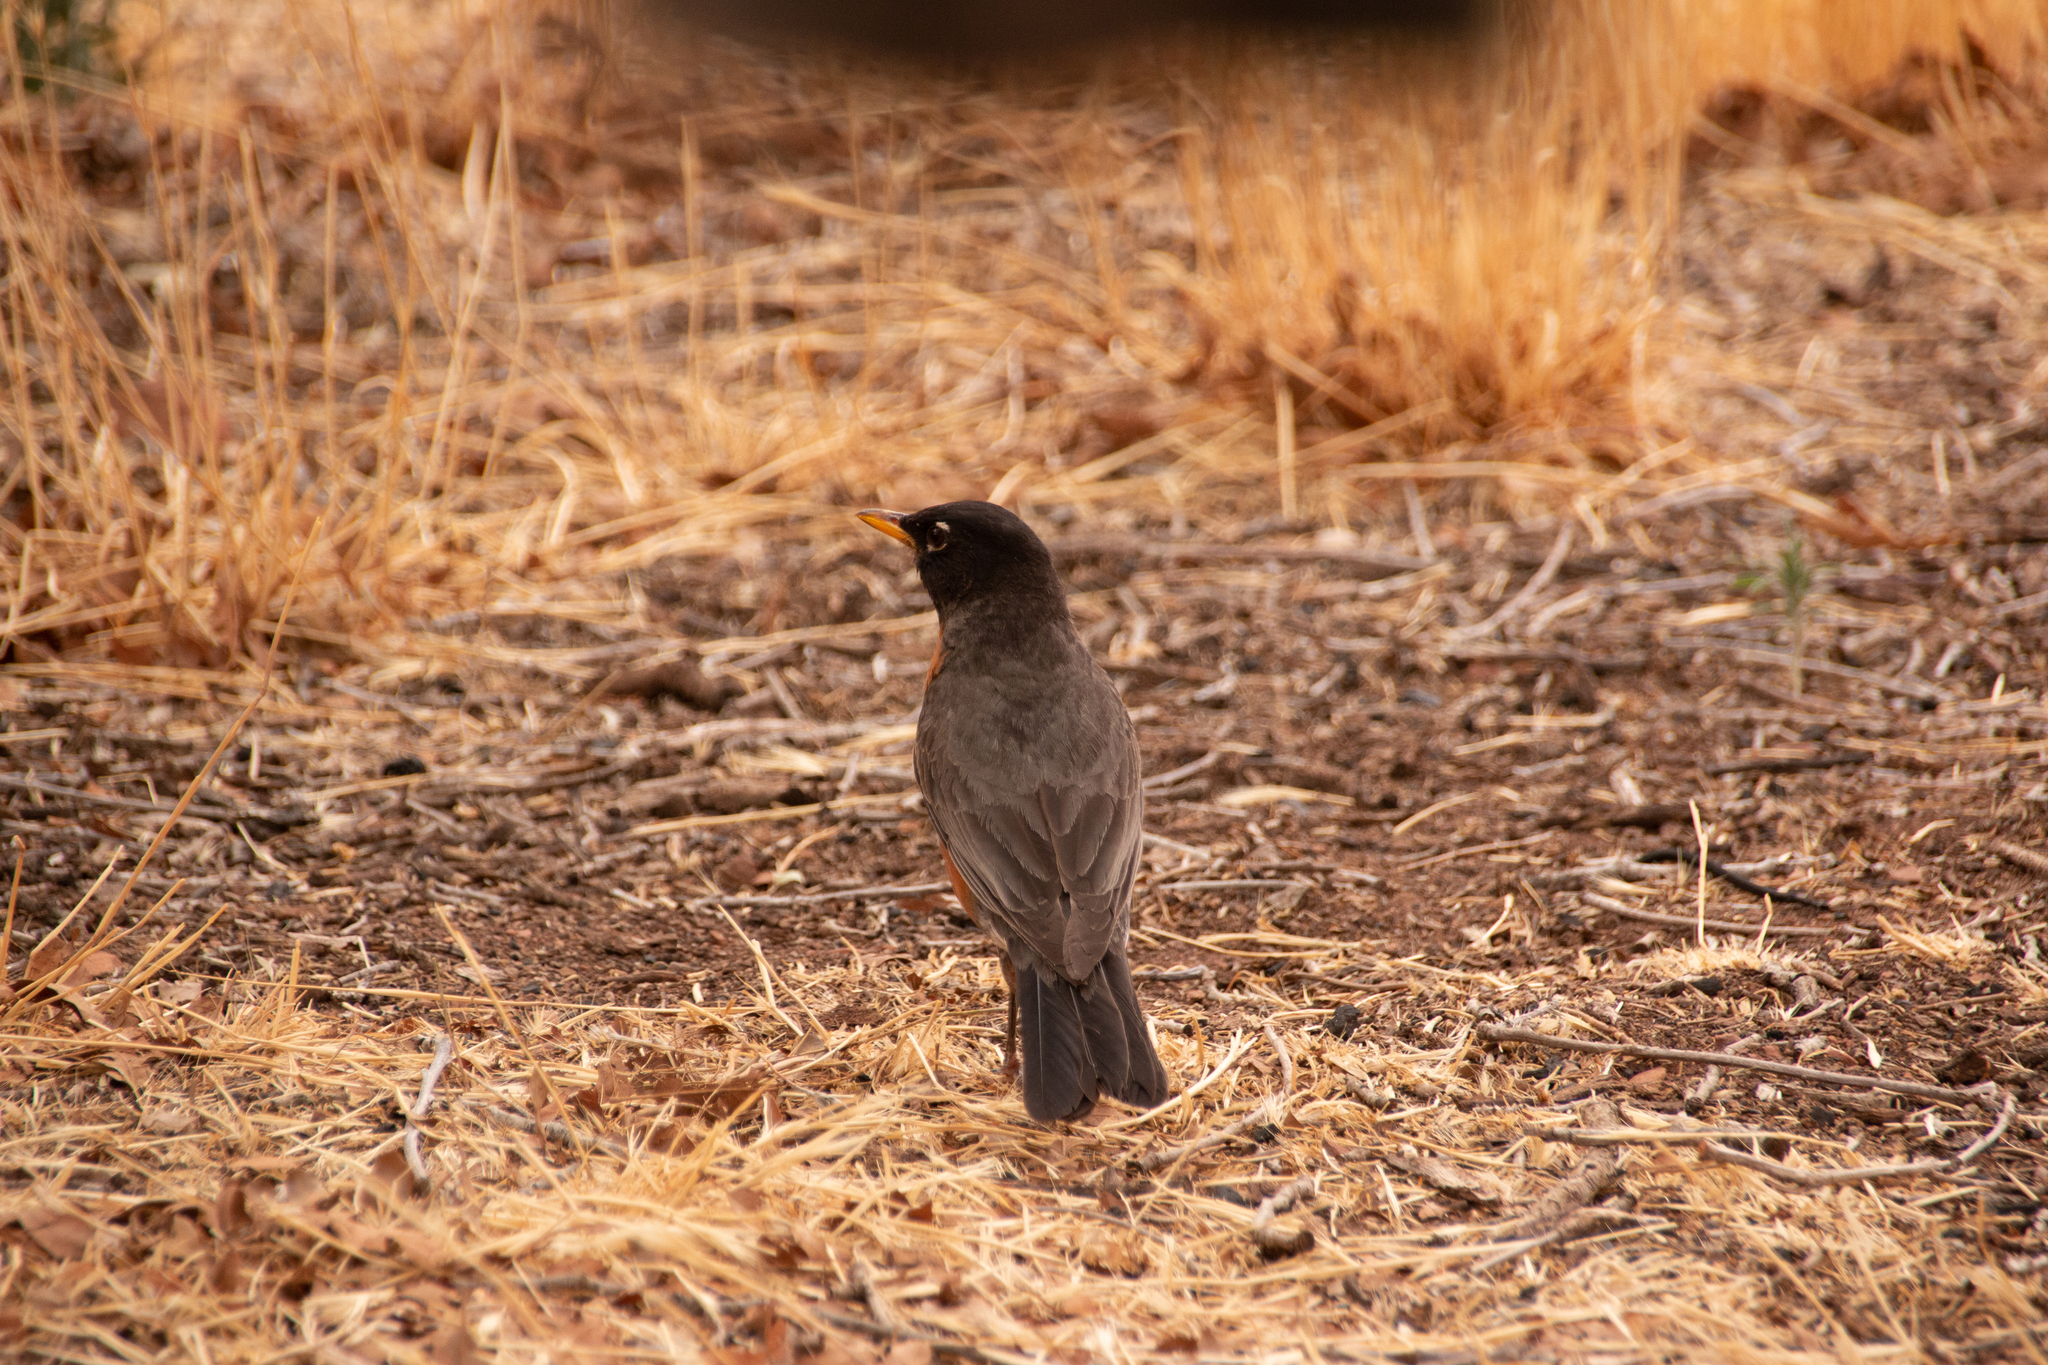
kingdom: Animalia
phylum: Chordata
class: Aves
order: Passeriformes
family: Turdidae
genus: Turdus
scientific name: Turdus migratorius
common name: American robin
